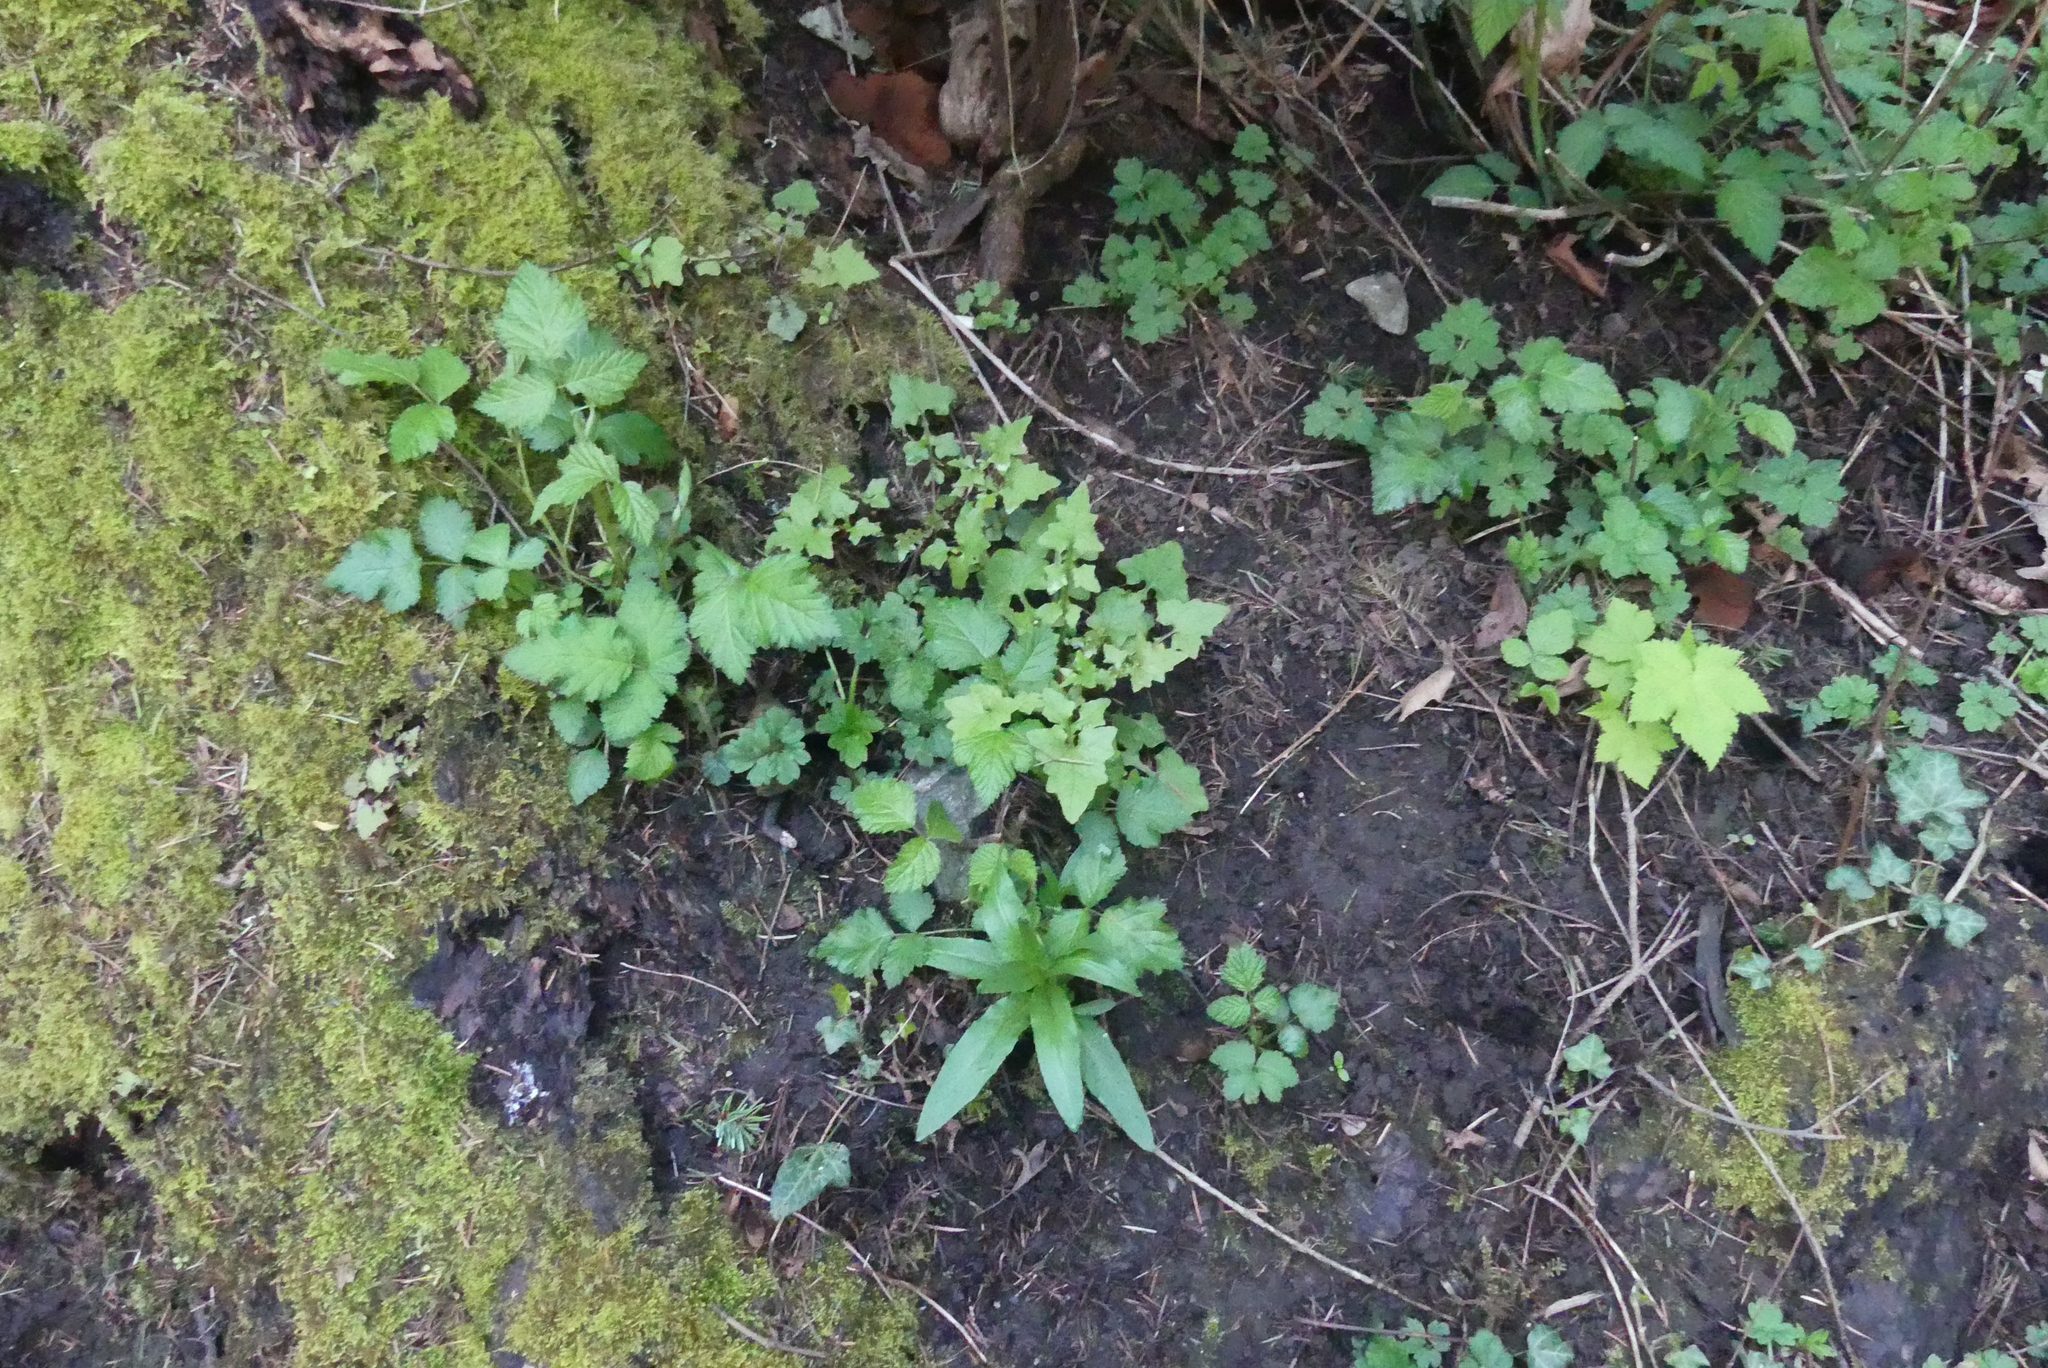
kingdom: Plantae
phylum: Tracheophyta
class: Magnoliopsida
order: Asterales
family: Asteraceae
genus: Mycelis
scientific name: Mycelis muralis
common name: Wall lettuce
